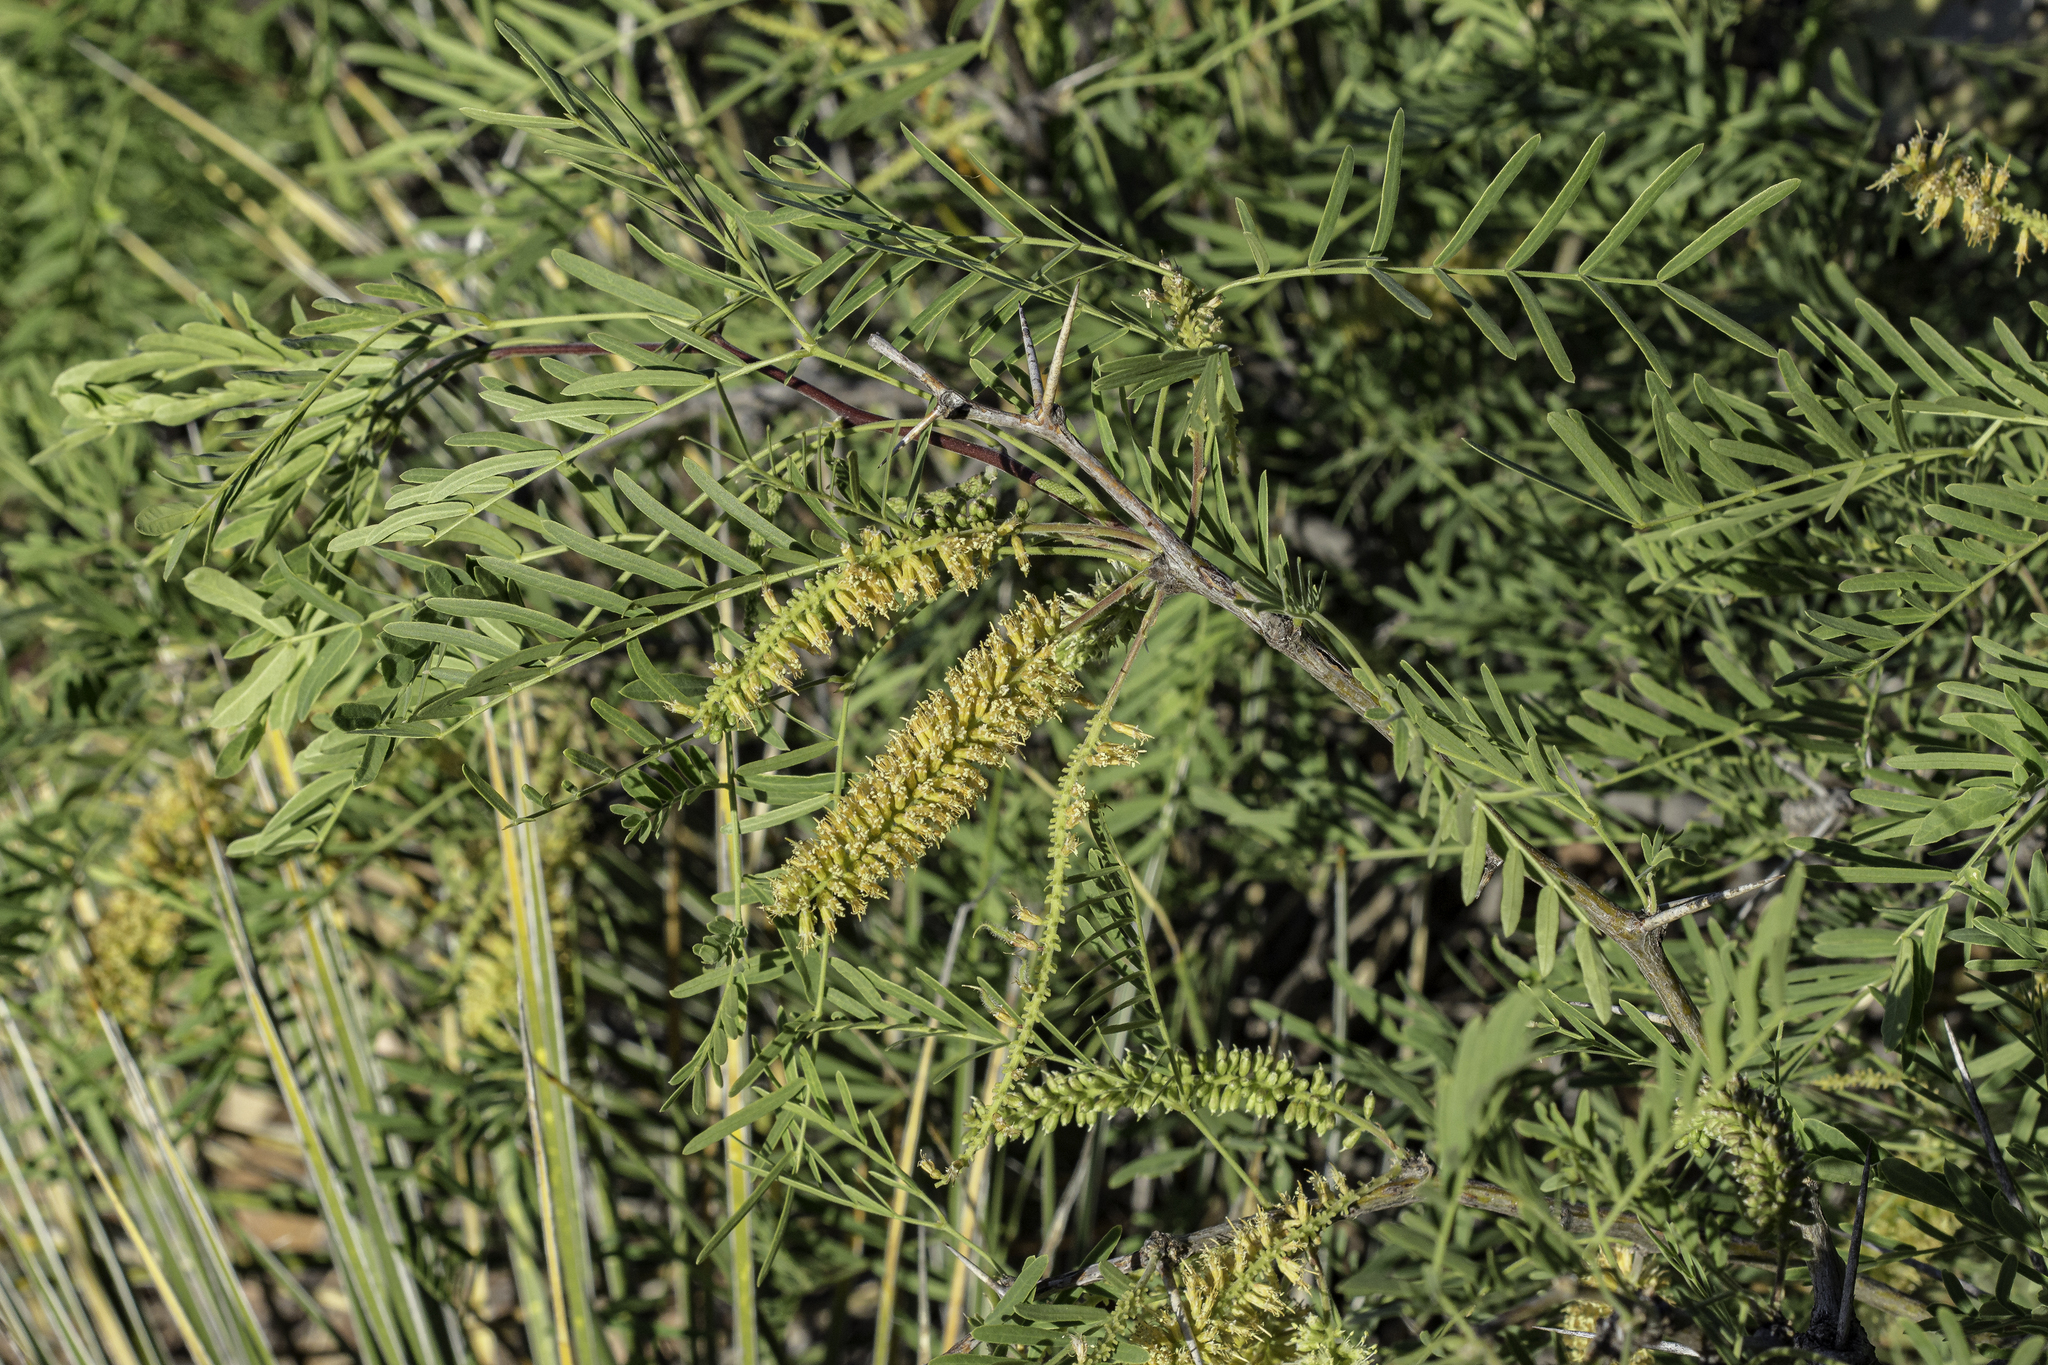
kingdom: Plantae
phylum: Tracheophyta
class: Magnoliopsida
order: Fabales
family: Fabaceae
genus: Prosopis
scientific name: Prosopis glandulosa
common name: Honey mesquite
